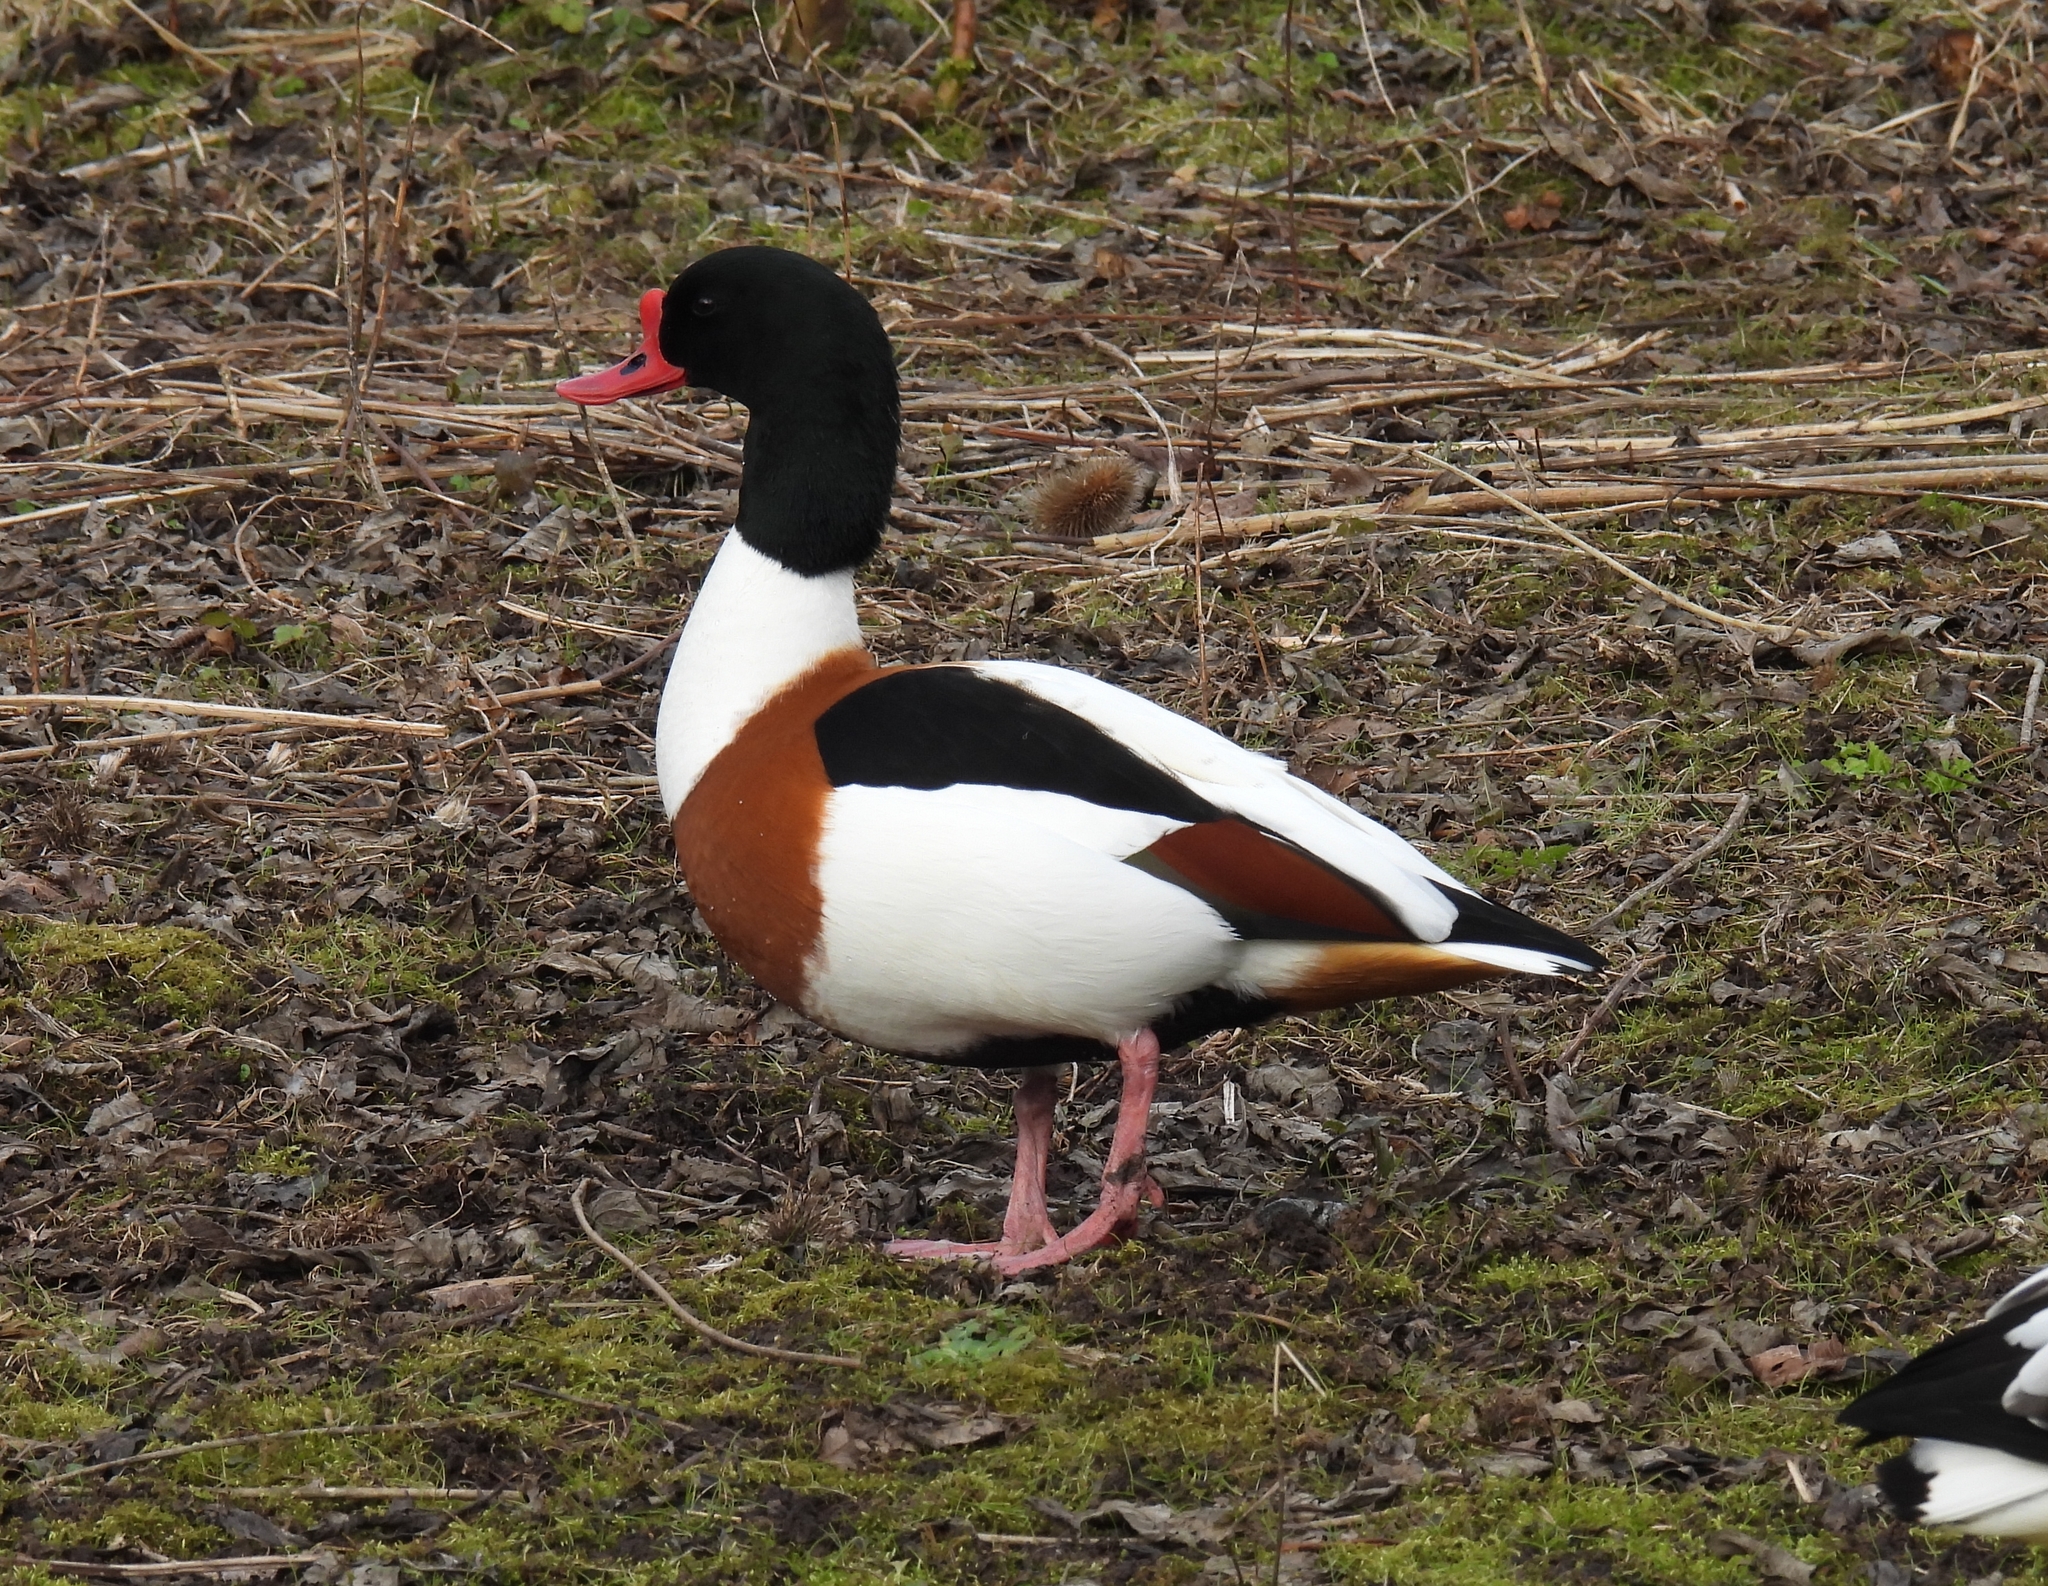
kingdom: Animalia
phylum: Chordata
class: Aves
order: Anseriformes
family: Anatidae
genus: Tadorna
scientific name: Tadorna tadorna
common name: Common shelduck
